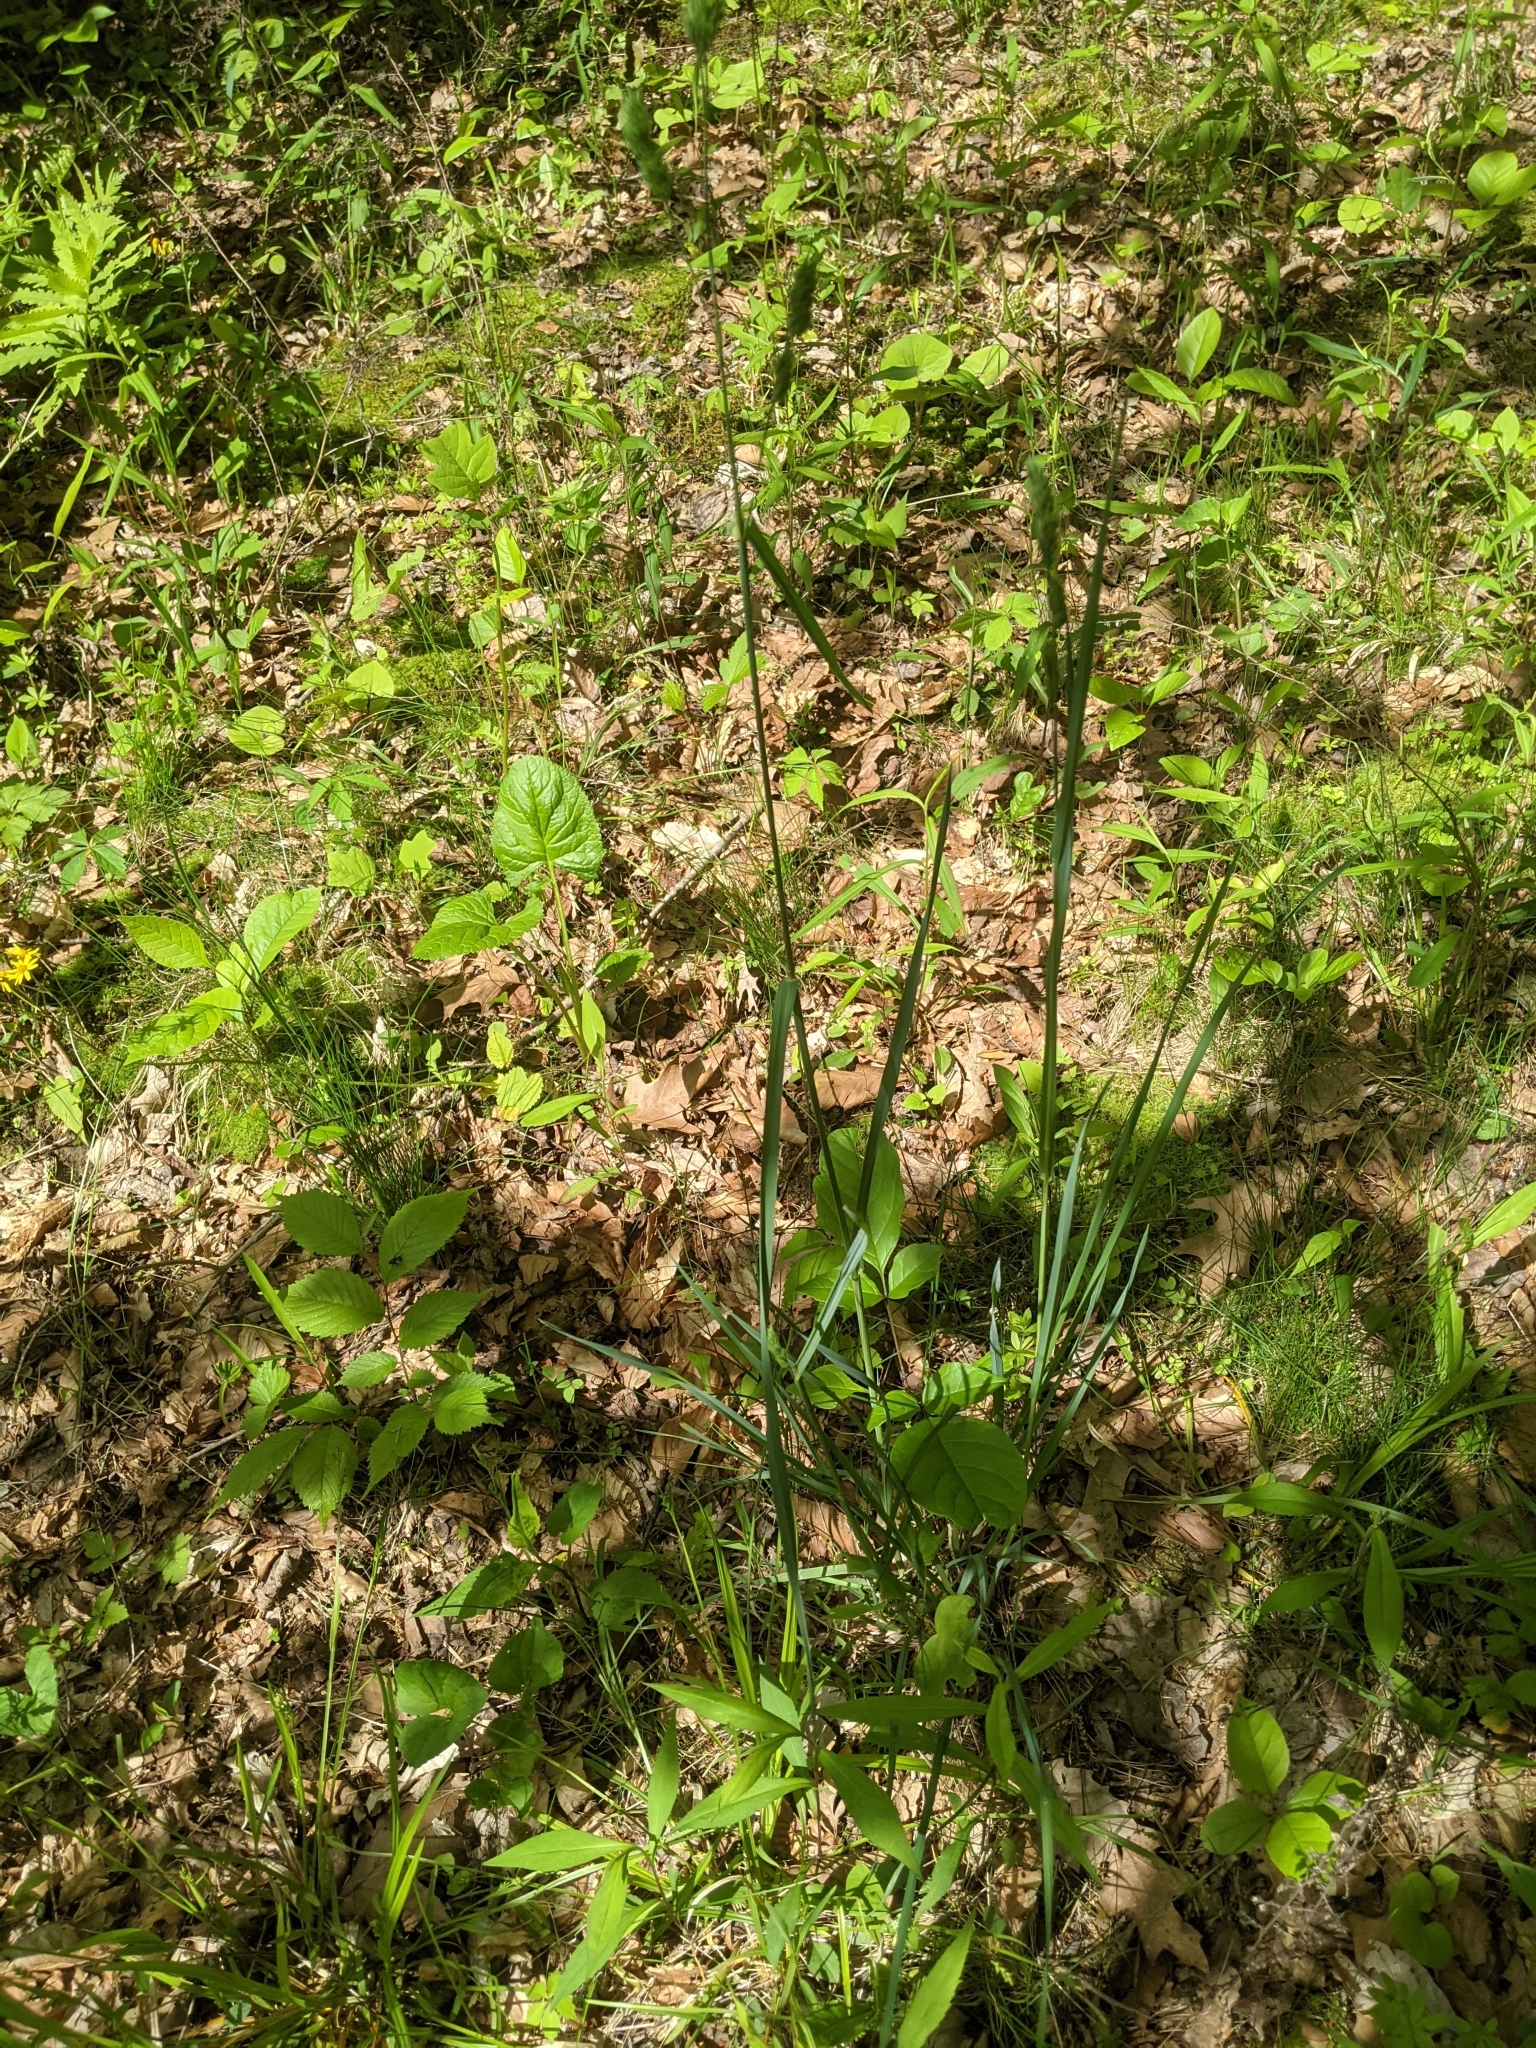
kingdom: Plantae
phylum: Tracheophyta
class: Liliopsida
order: Poales
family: Poaceae
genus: Dactylis
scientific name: Dactylis glomerata
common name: Orchardgrass
